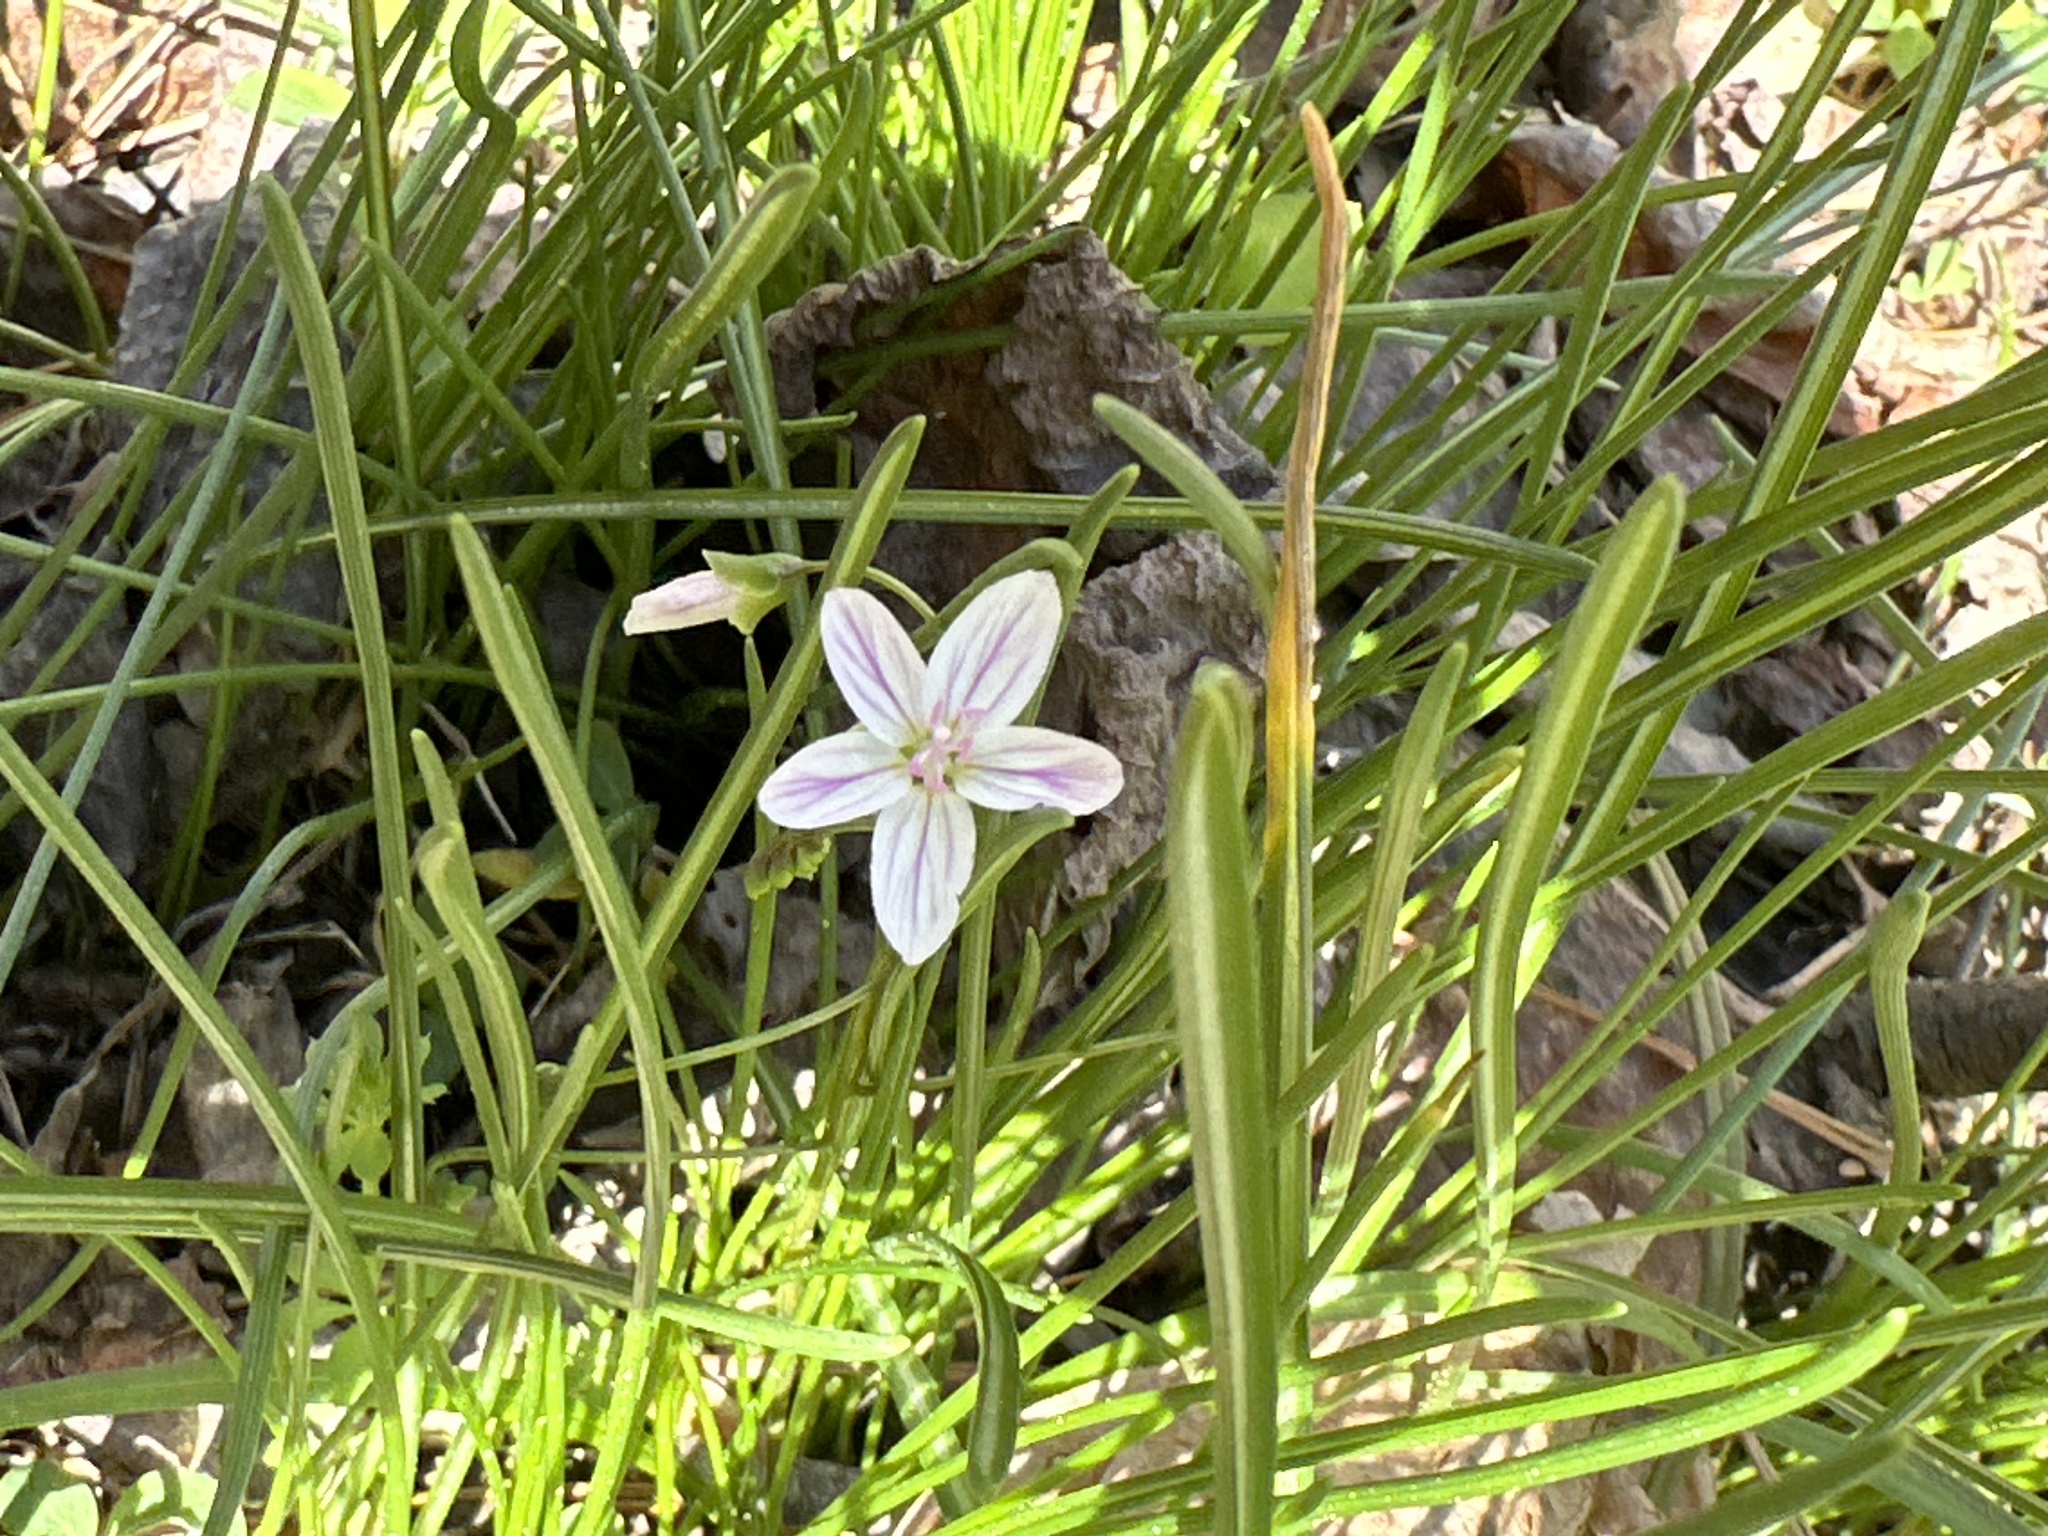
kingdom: Plantae
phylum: Tracheophyta
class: Magnoliopsida
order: Caryophyllales
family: Montiaceae
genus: Claytonia
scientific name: Claytonia virginica
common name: Virginia springbeauty
